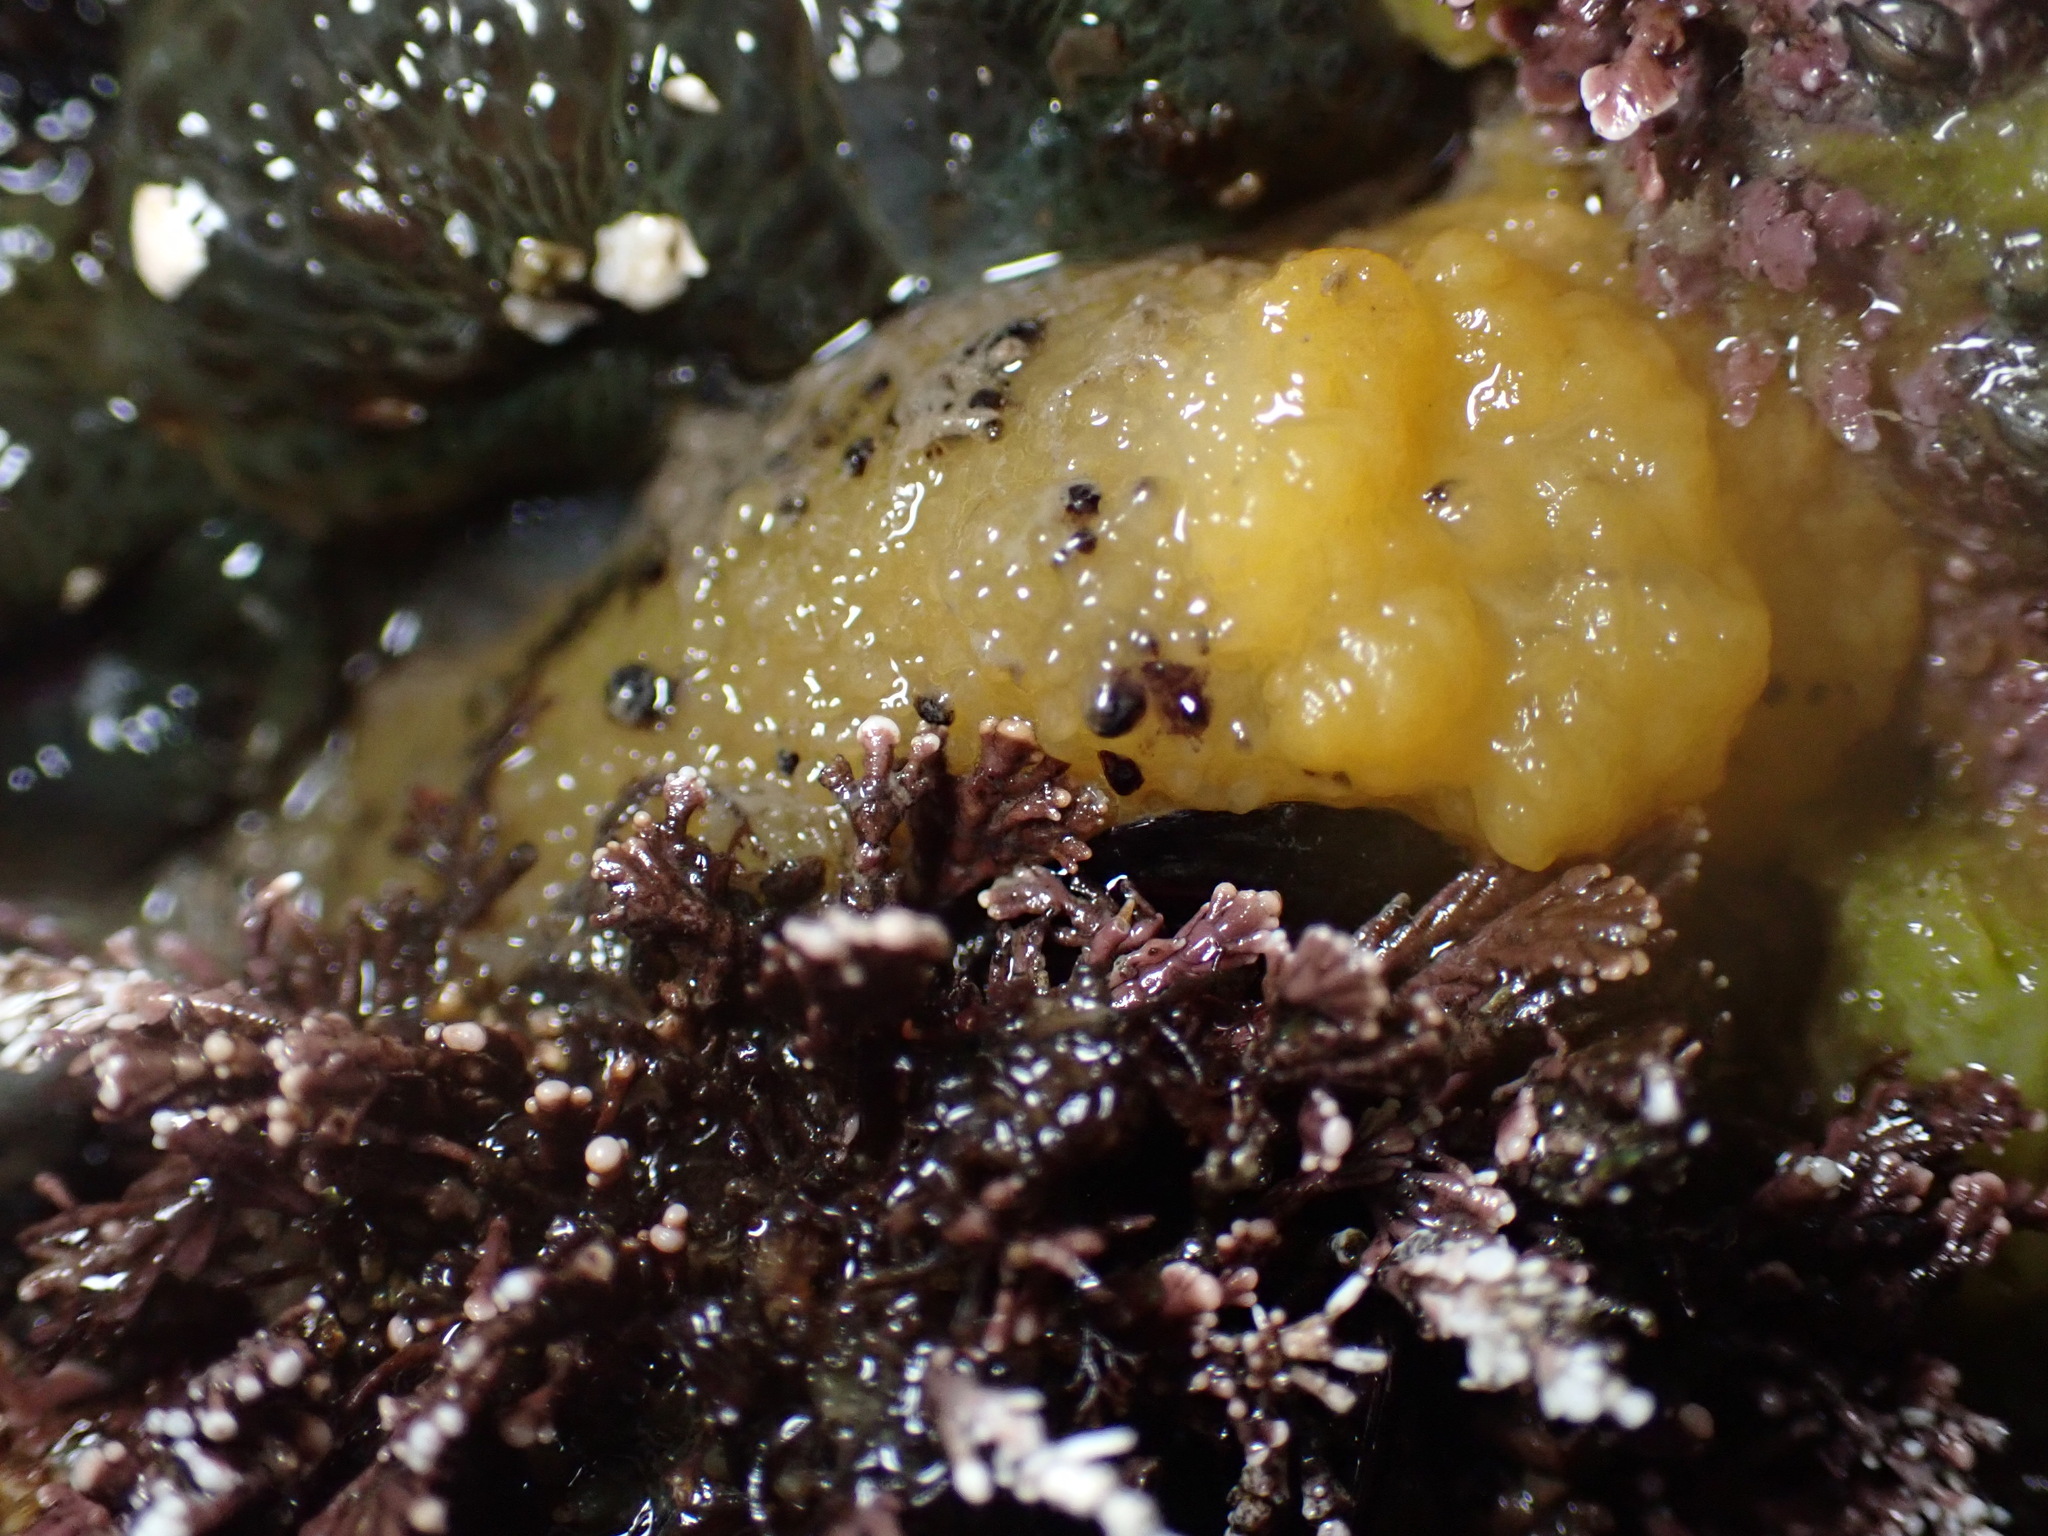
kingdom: Animalia
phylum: Mollusca
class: Gastropoda
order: Nudibranchia
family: Dorididae
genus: Doris
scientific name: Doris montereyensis
